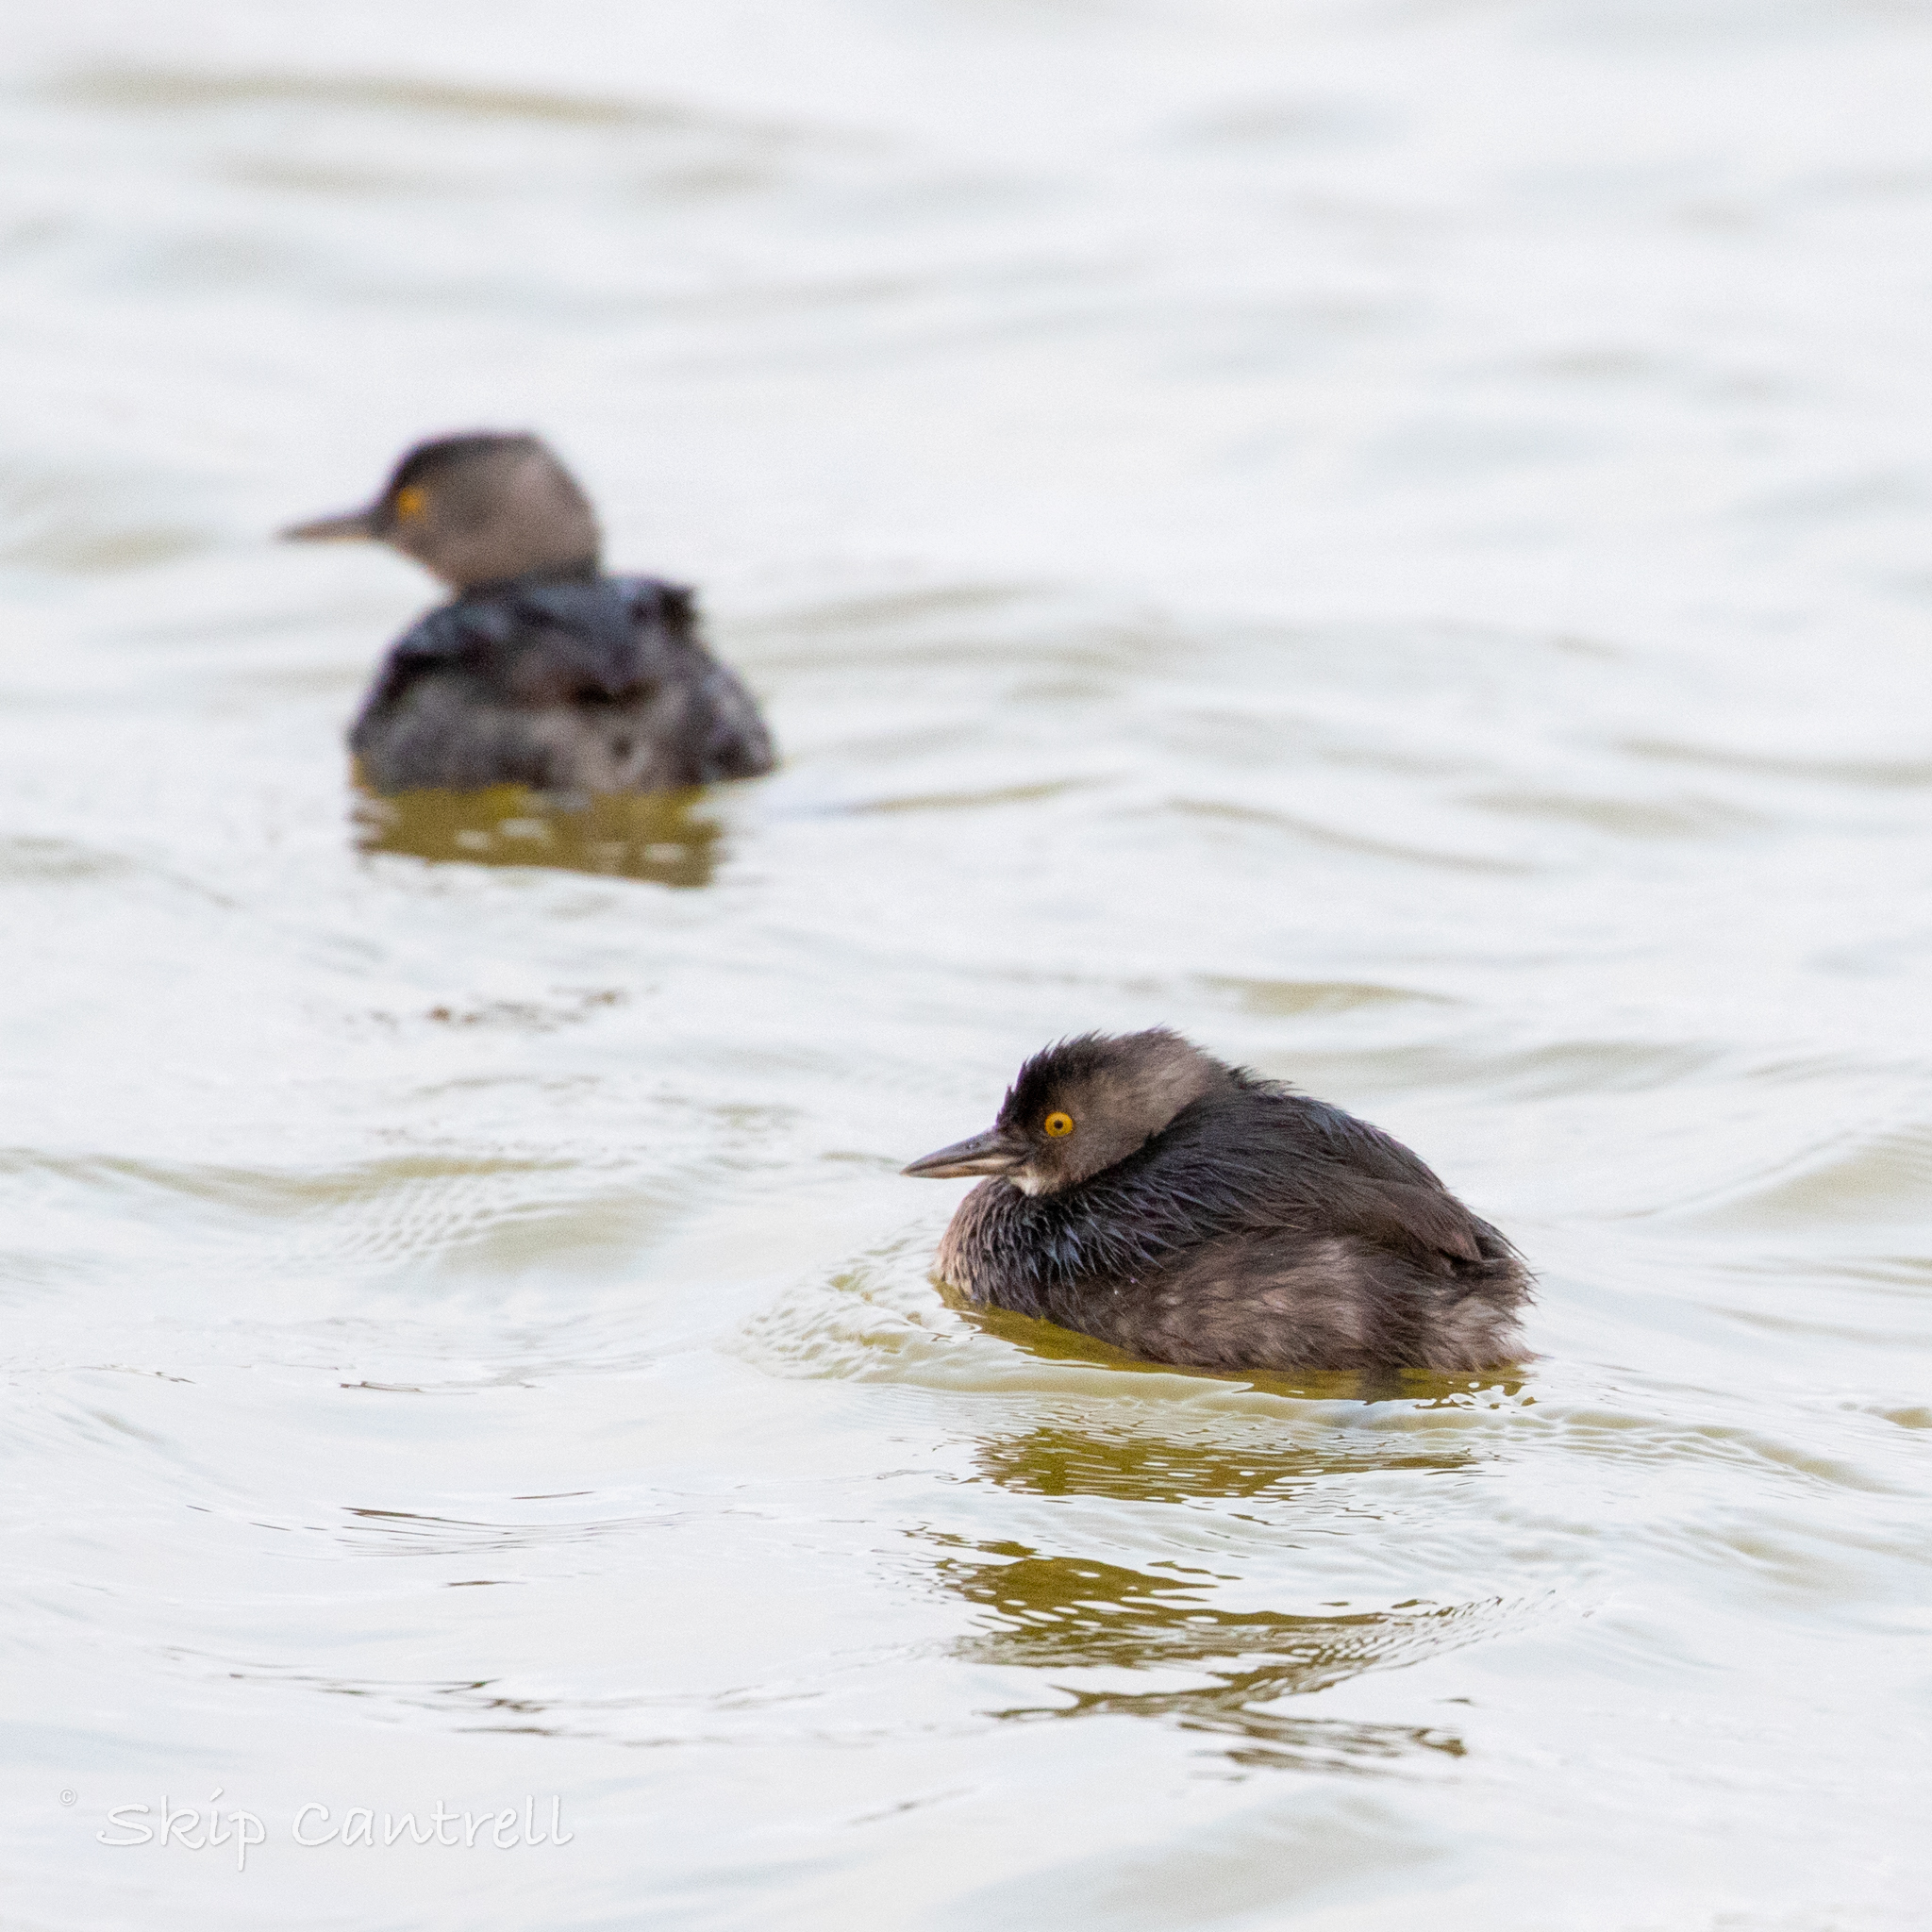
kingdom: Animalia
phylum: Chordata
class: Aves
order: Podicipediformes
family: Podicipedidae
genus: Tachybaptus
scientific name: Tachybaptus dominicus
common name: Least grebe
